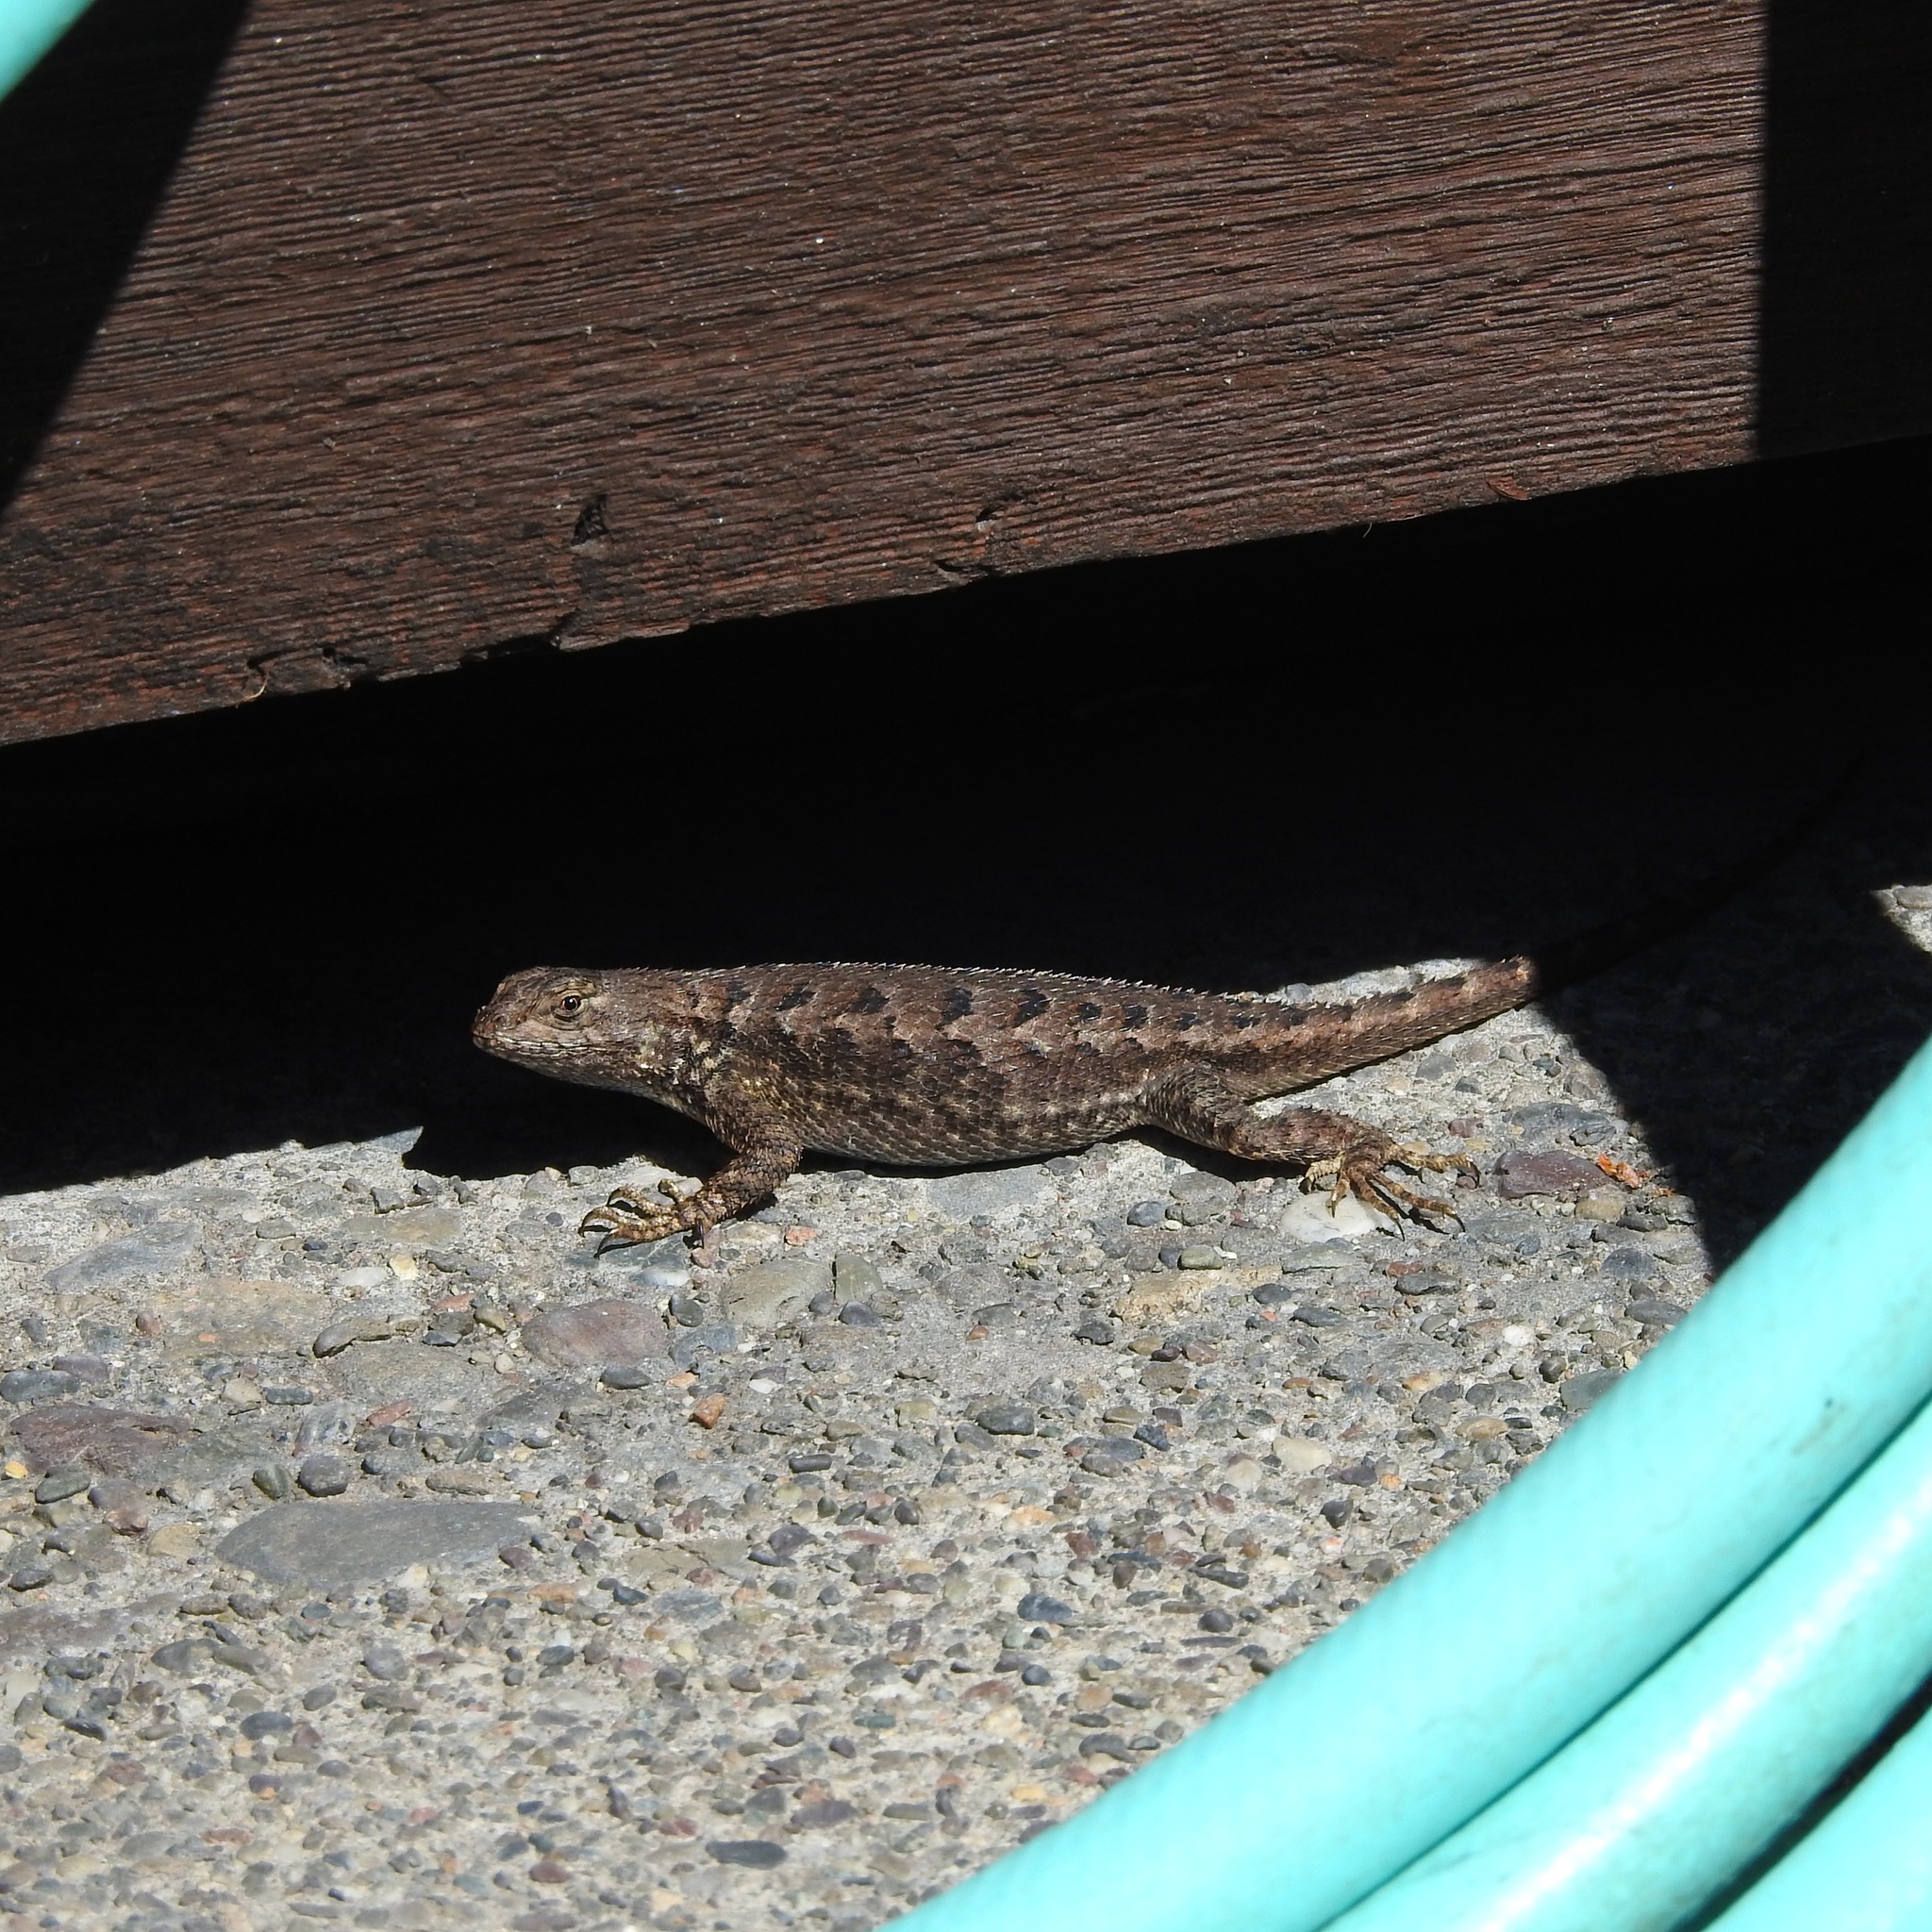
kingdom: Animalia
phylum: Chordata
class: Squamata
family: Phrynosomatidae
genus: Sceloporus
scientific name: Sceloporus occidentalis
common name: Western fence lizard
